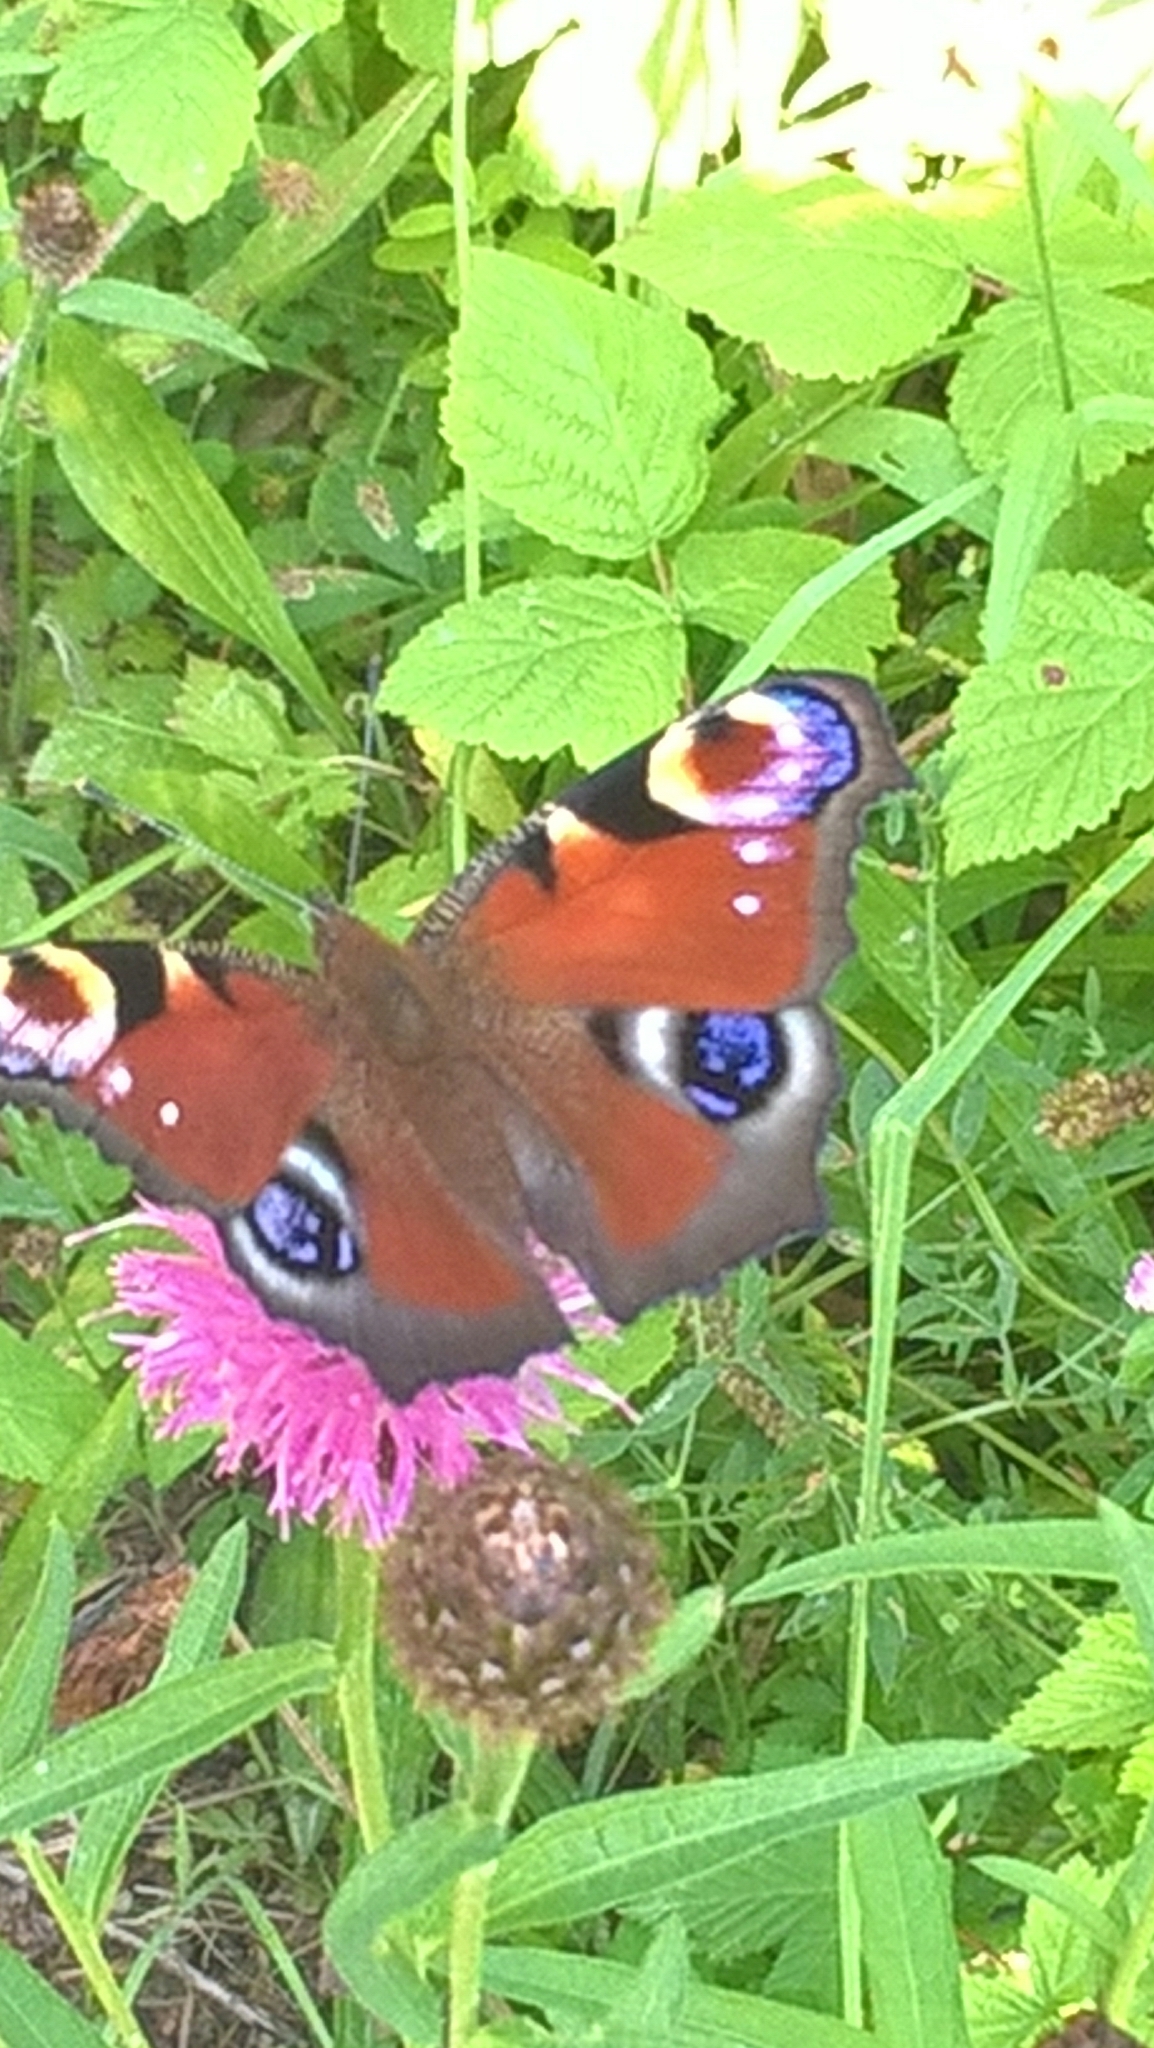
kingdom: Animalia
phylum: Arthropoda
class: Insecta
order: Lepidoptera
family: Nymphalidae
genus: Aglais
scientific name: Aglais io
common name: Peacock
